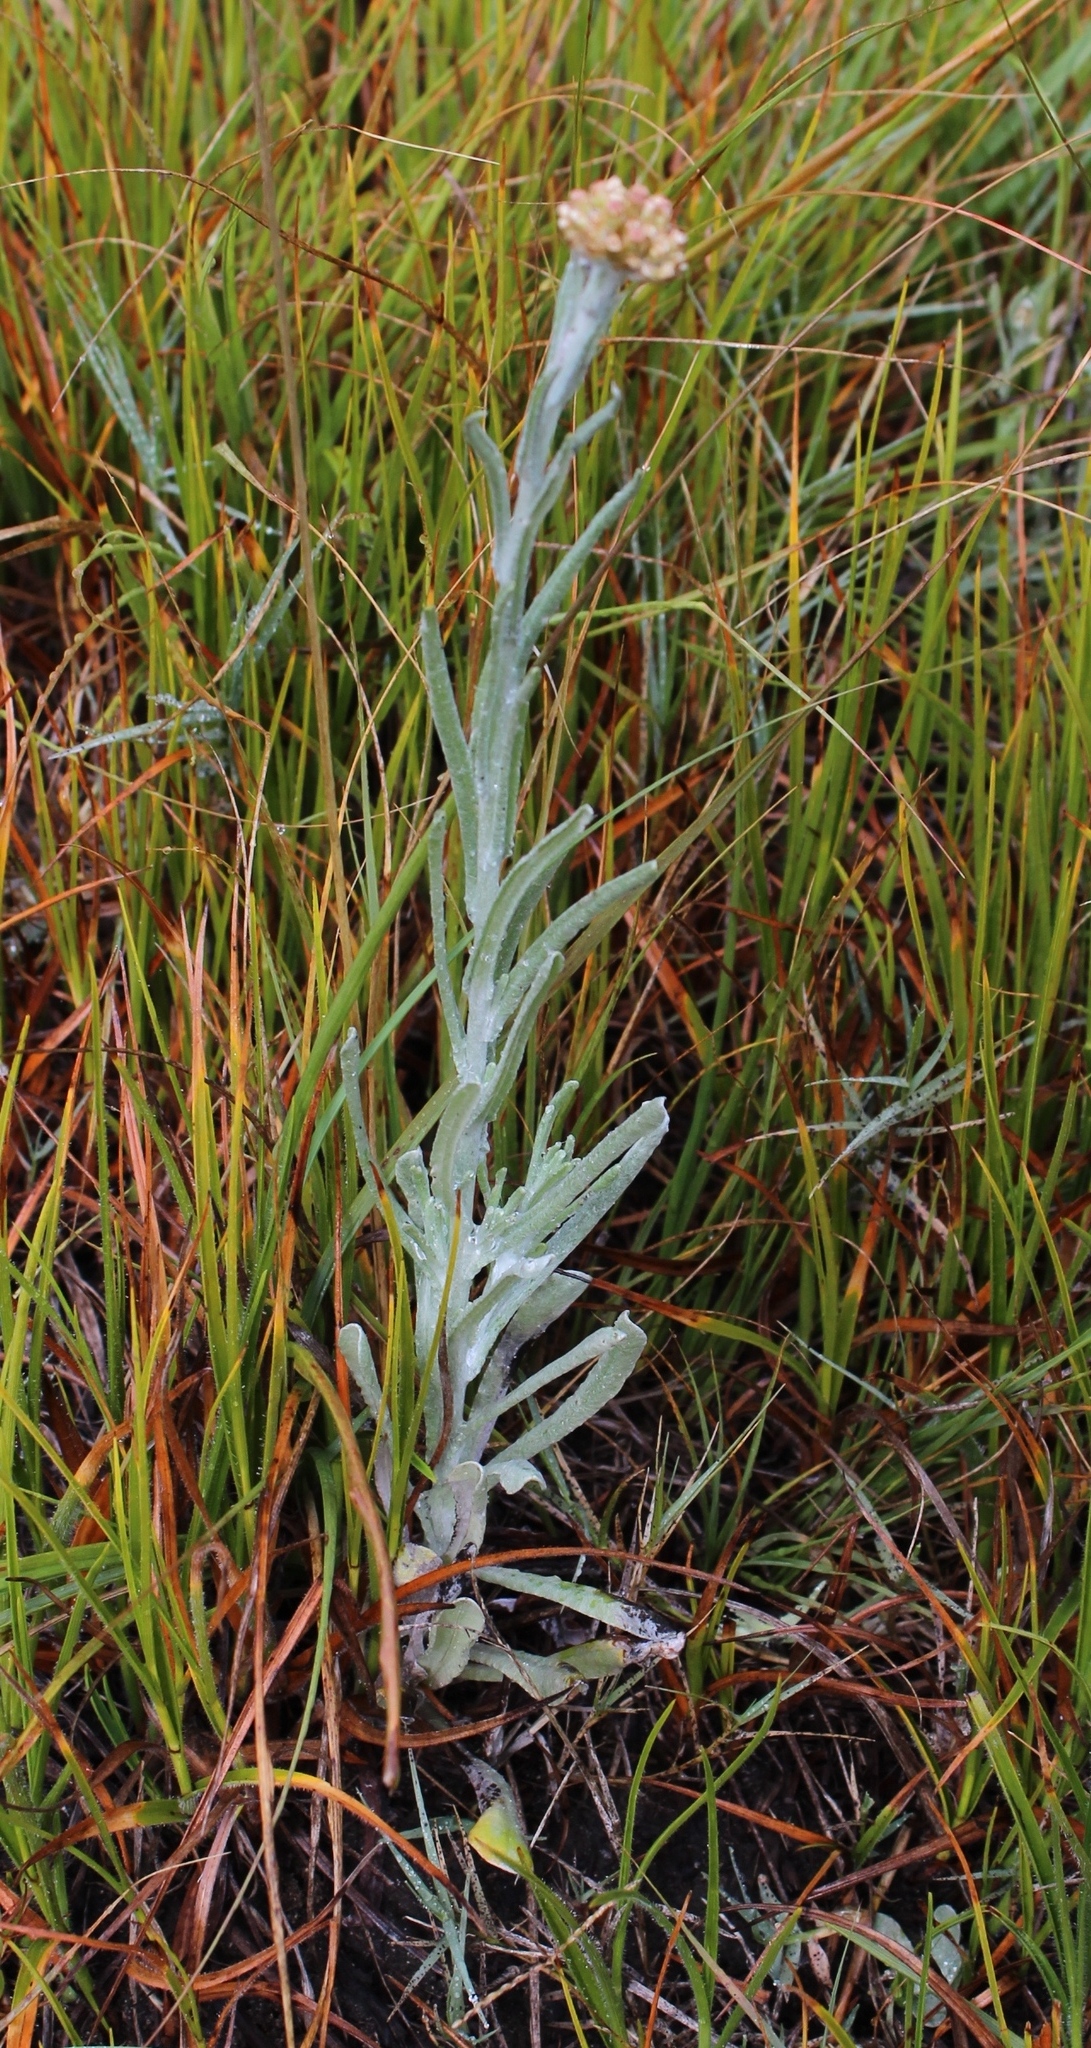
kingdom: Plantae
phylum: Tracheophyta
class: Magnoliopsida
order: Asterales
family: Asteraceae
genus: Helichrysum
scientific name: Helichrysum luteoalbum
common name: Daisy
